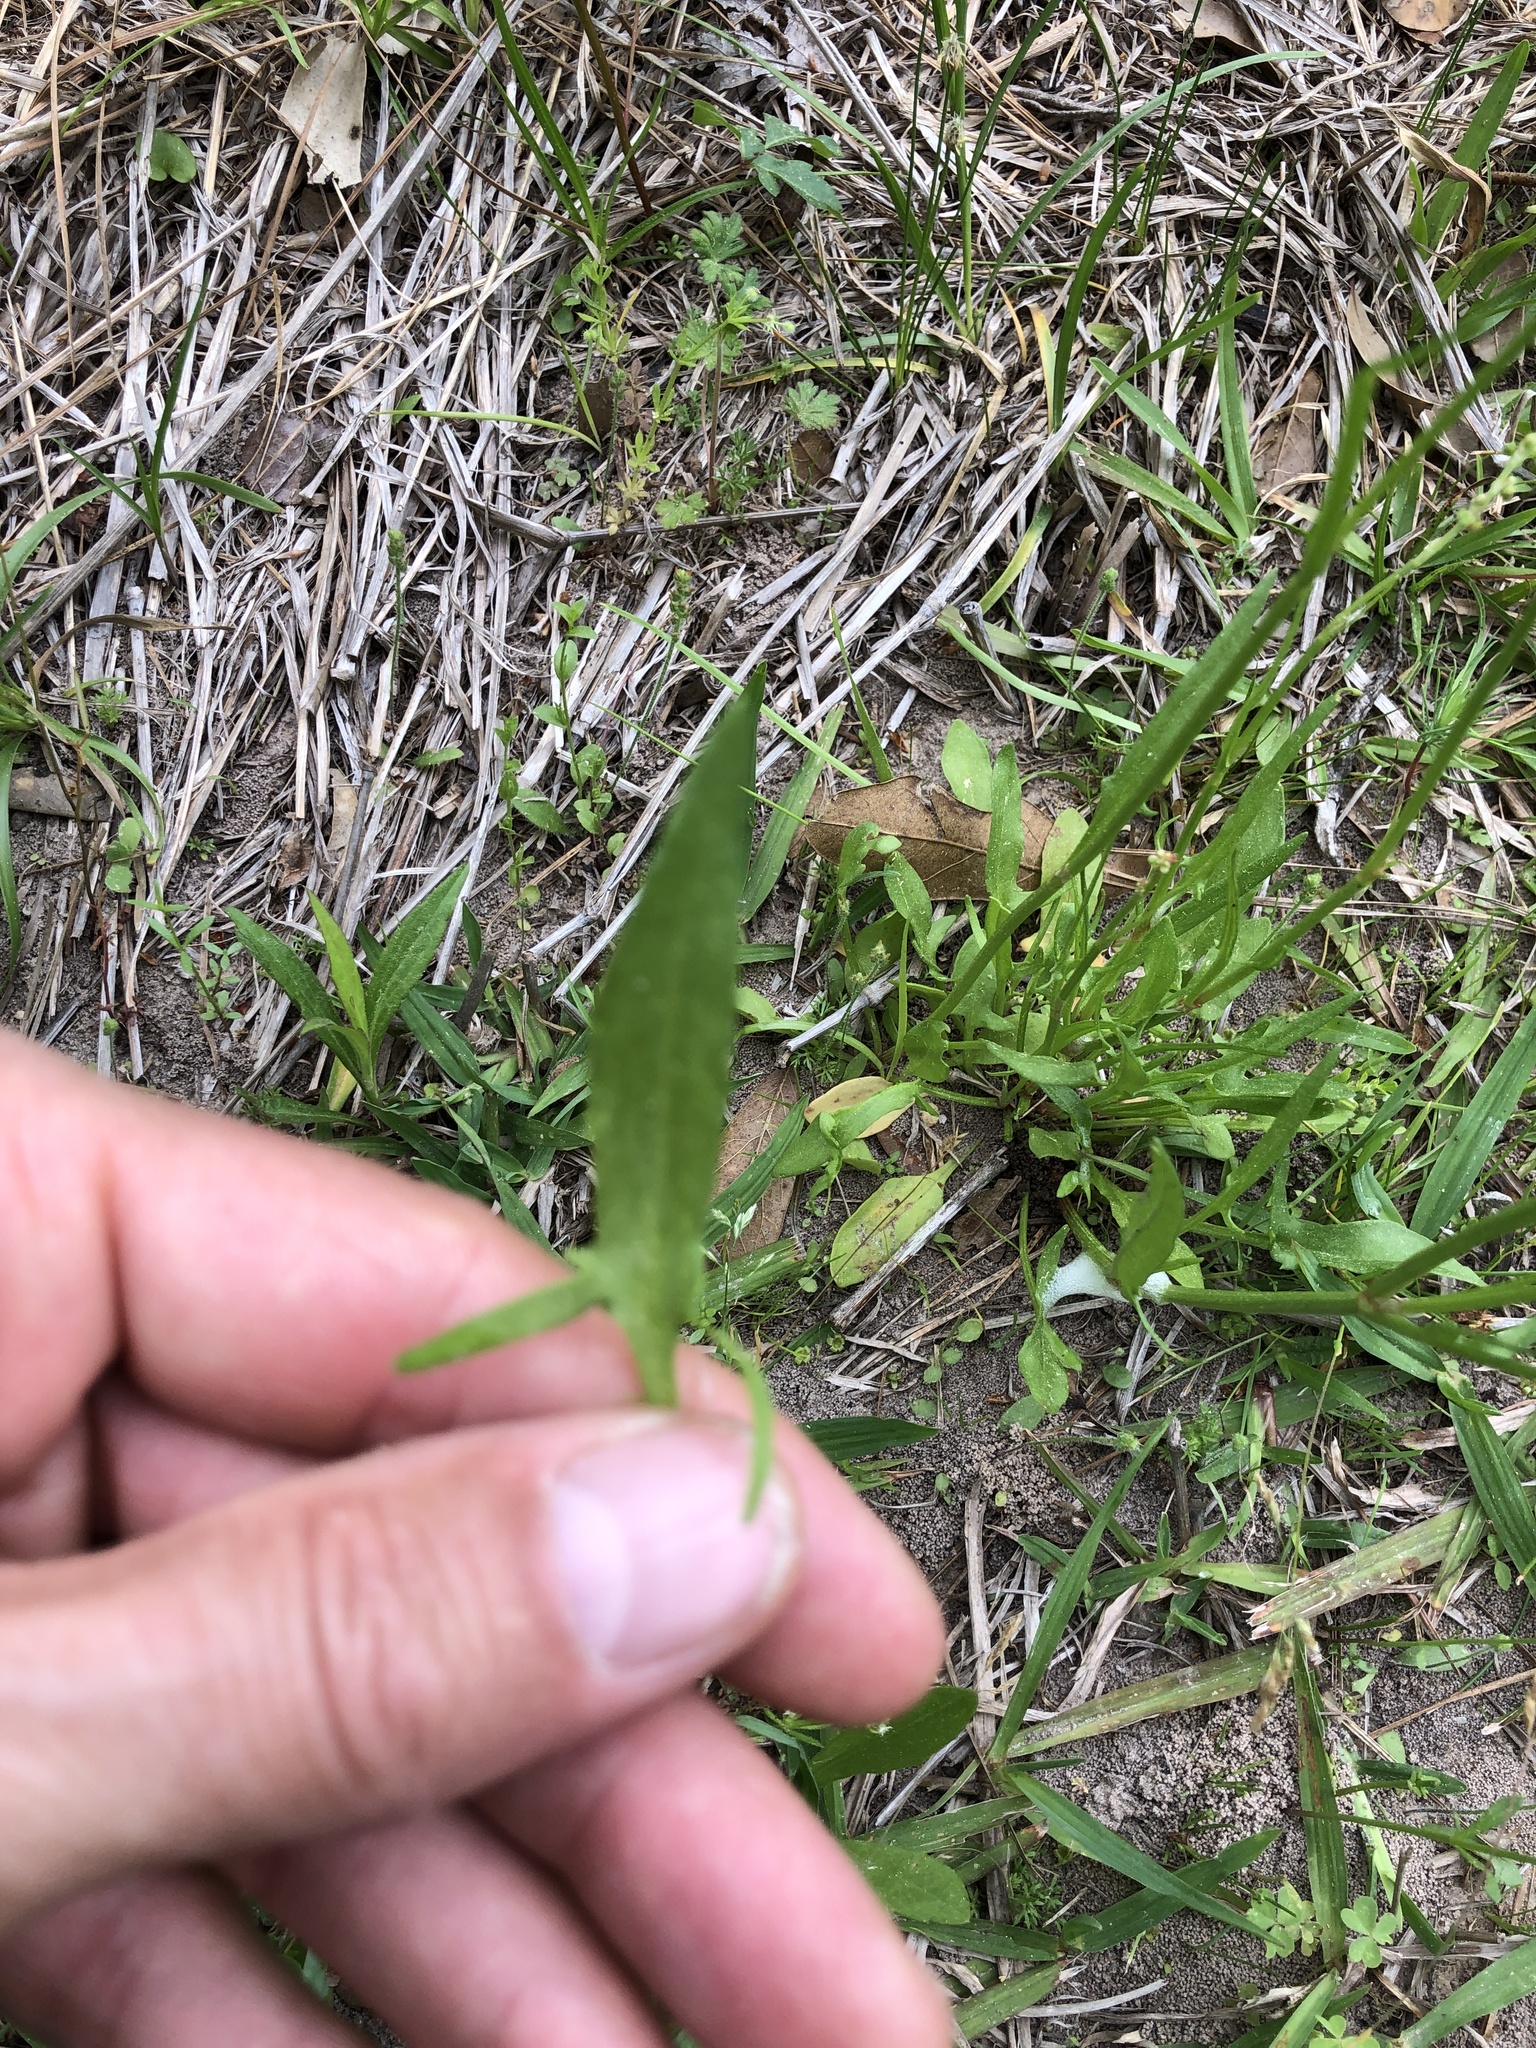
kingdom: Plantae
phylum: Tracheophyta
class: Magnoliopsida
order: Caryophyllales
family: Polygonaceae
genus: Rumex
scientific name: Rumex hastatulus
